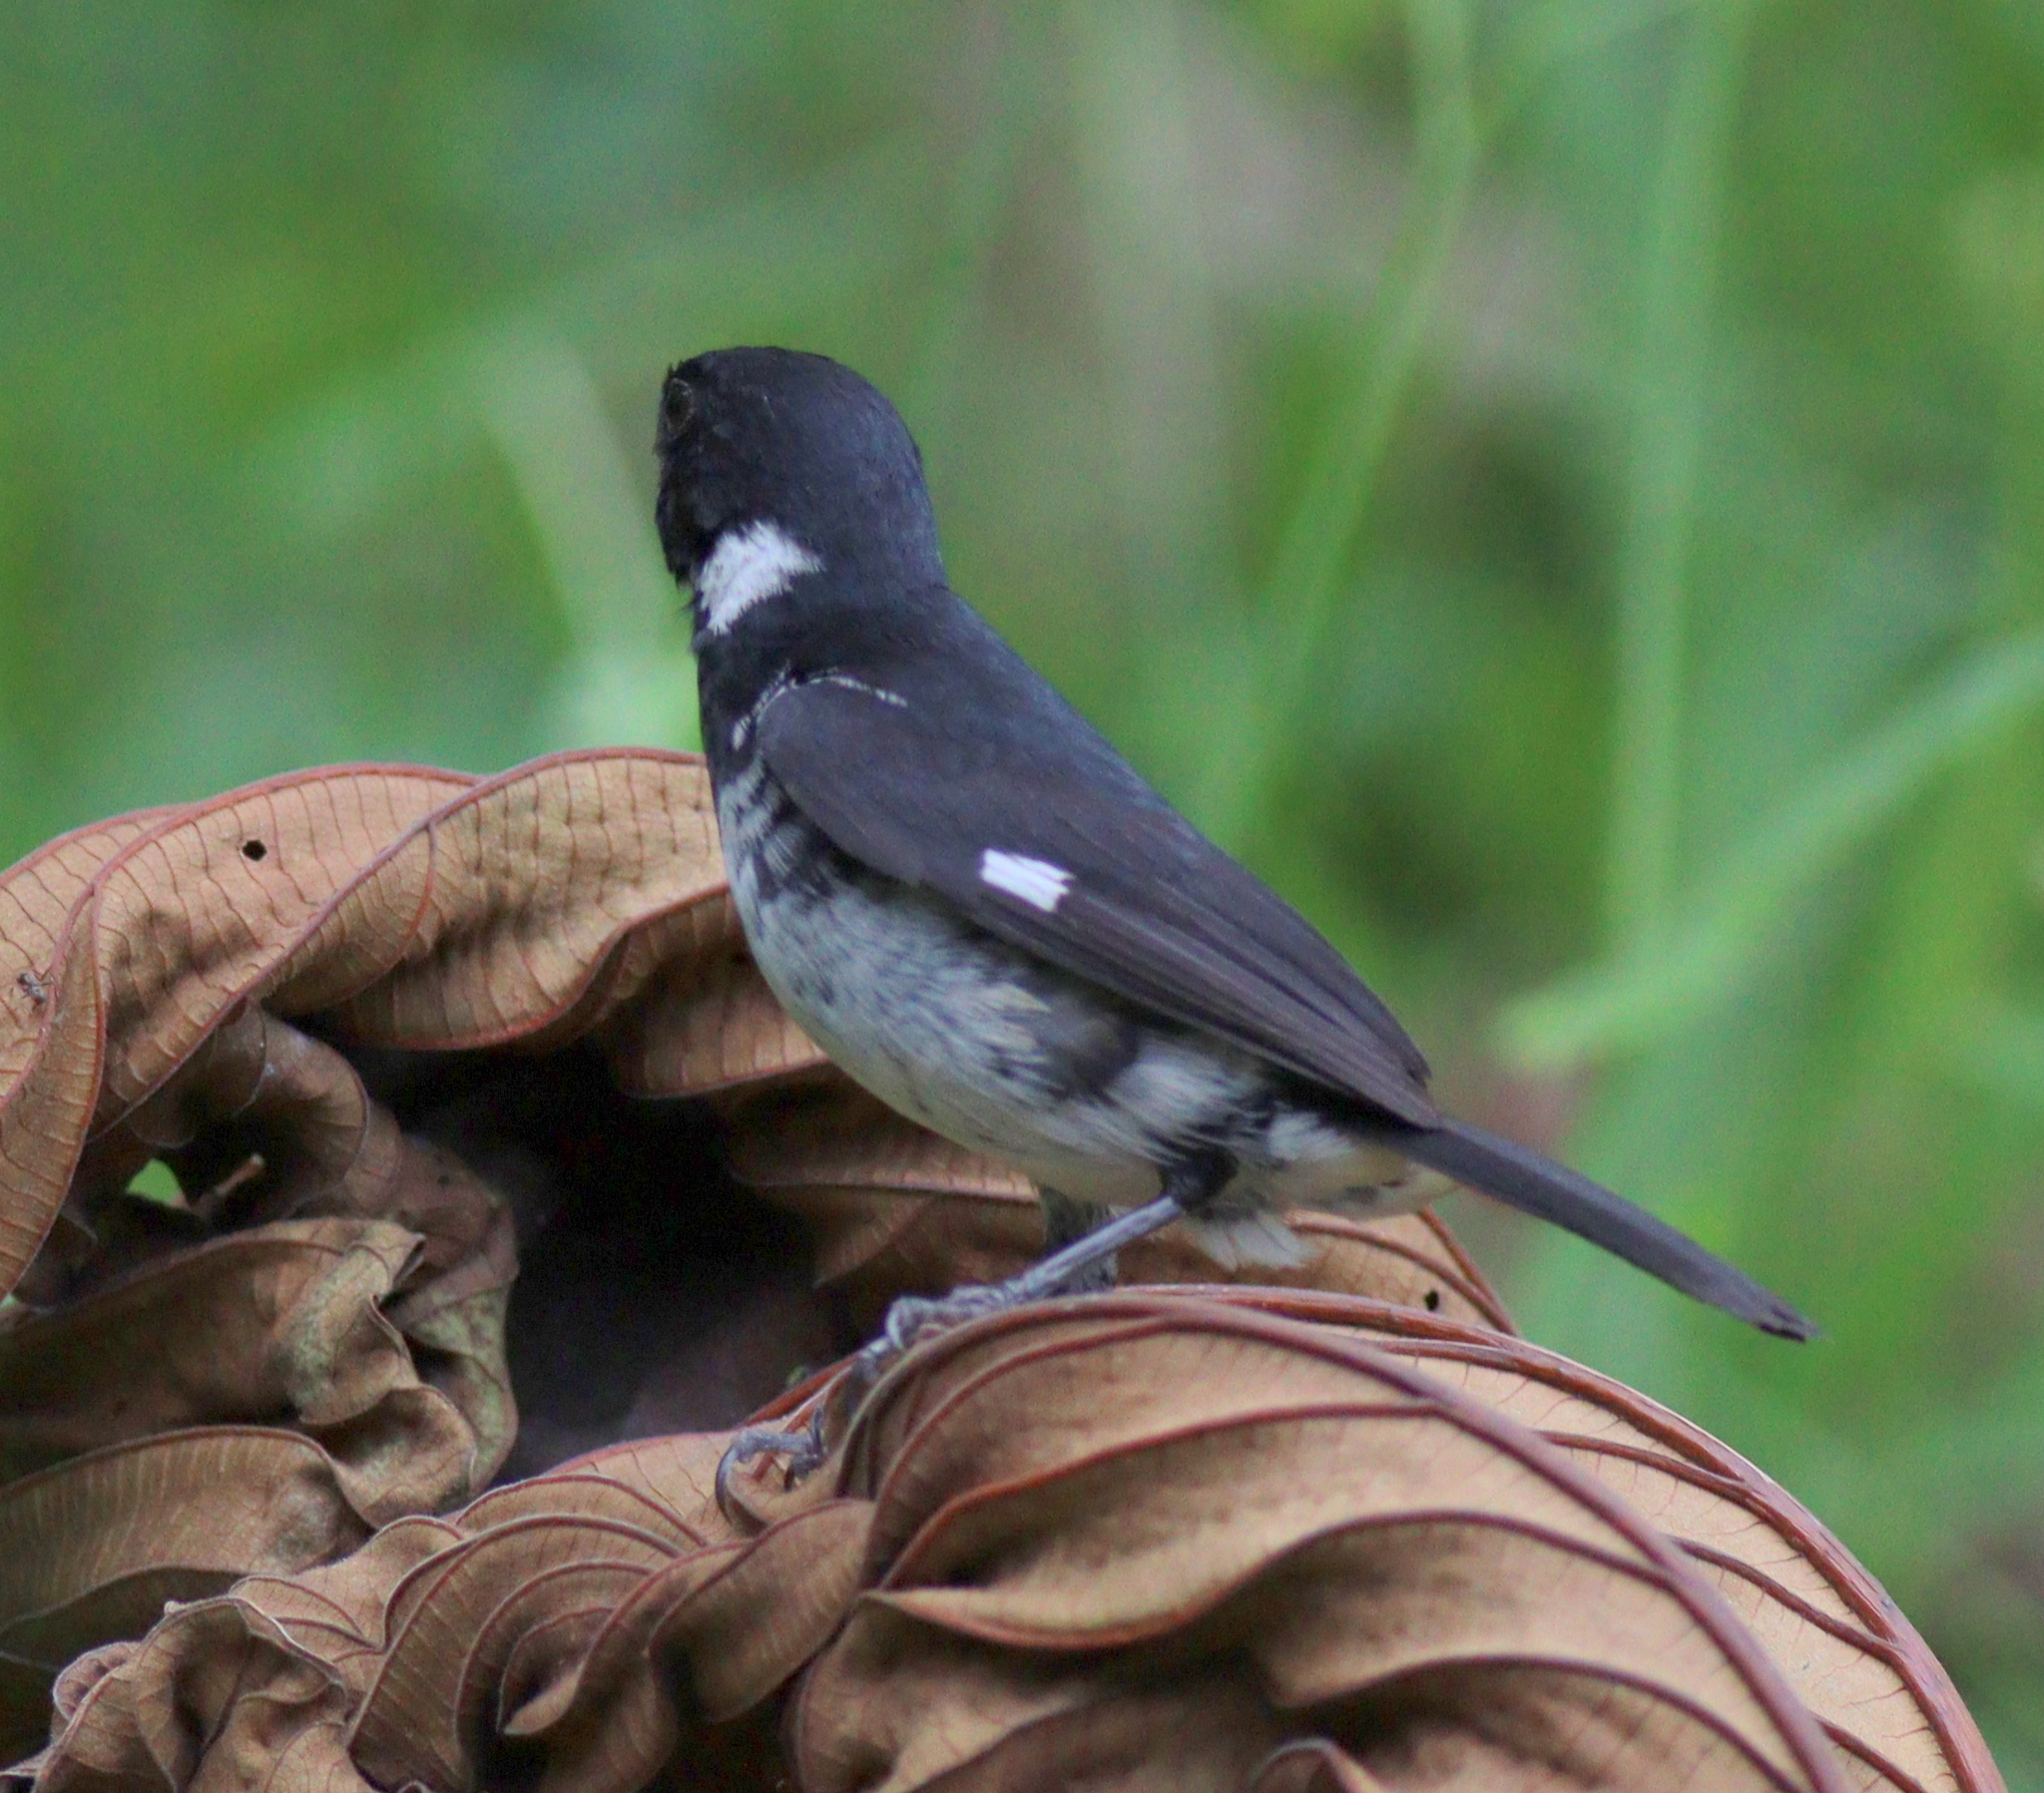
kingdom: Animalia
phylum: Chordata
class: Aves
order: Passeriformes
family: Thraupidae
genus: Sporophila
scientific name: Sporophila corvina
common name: Variable seedeater
